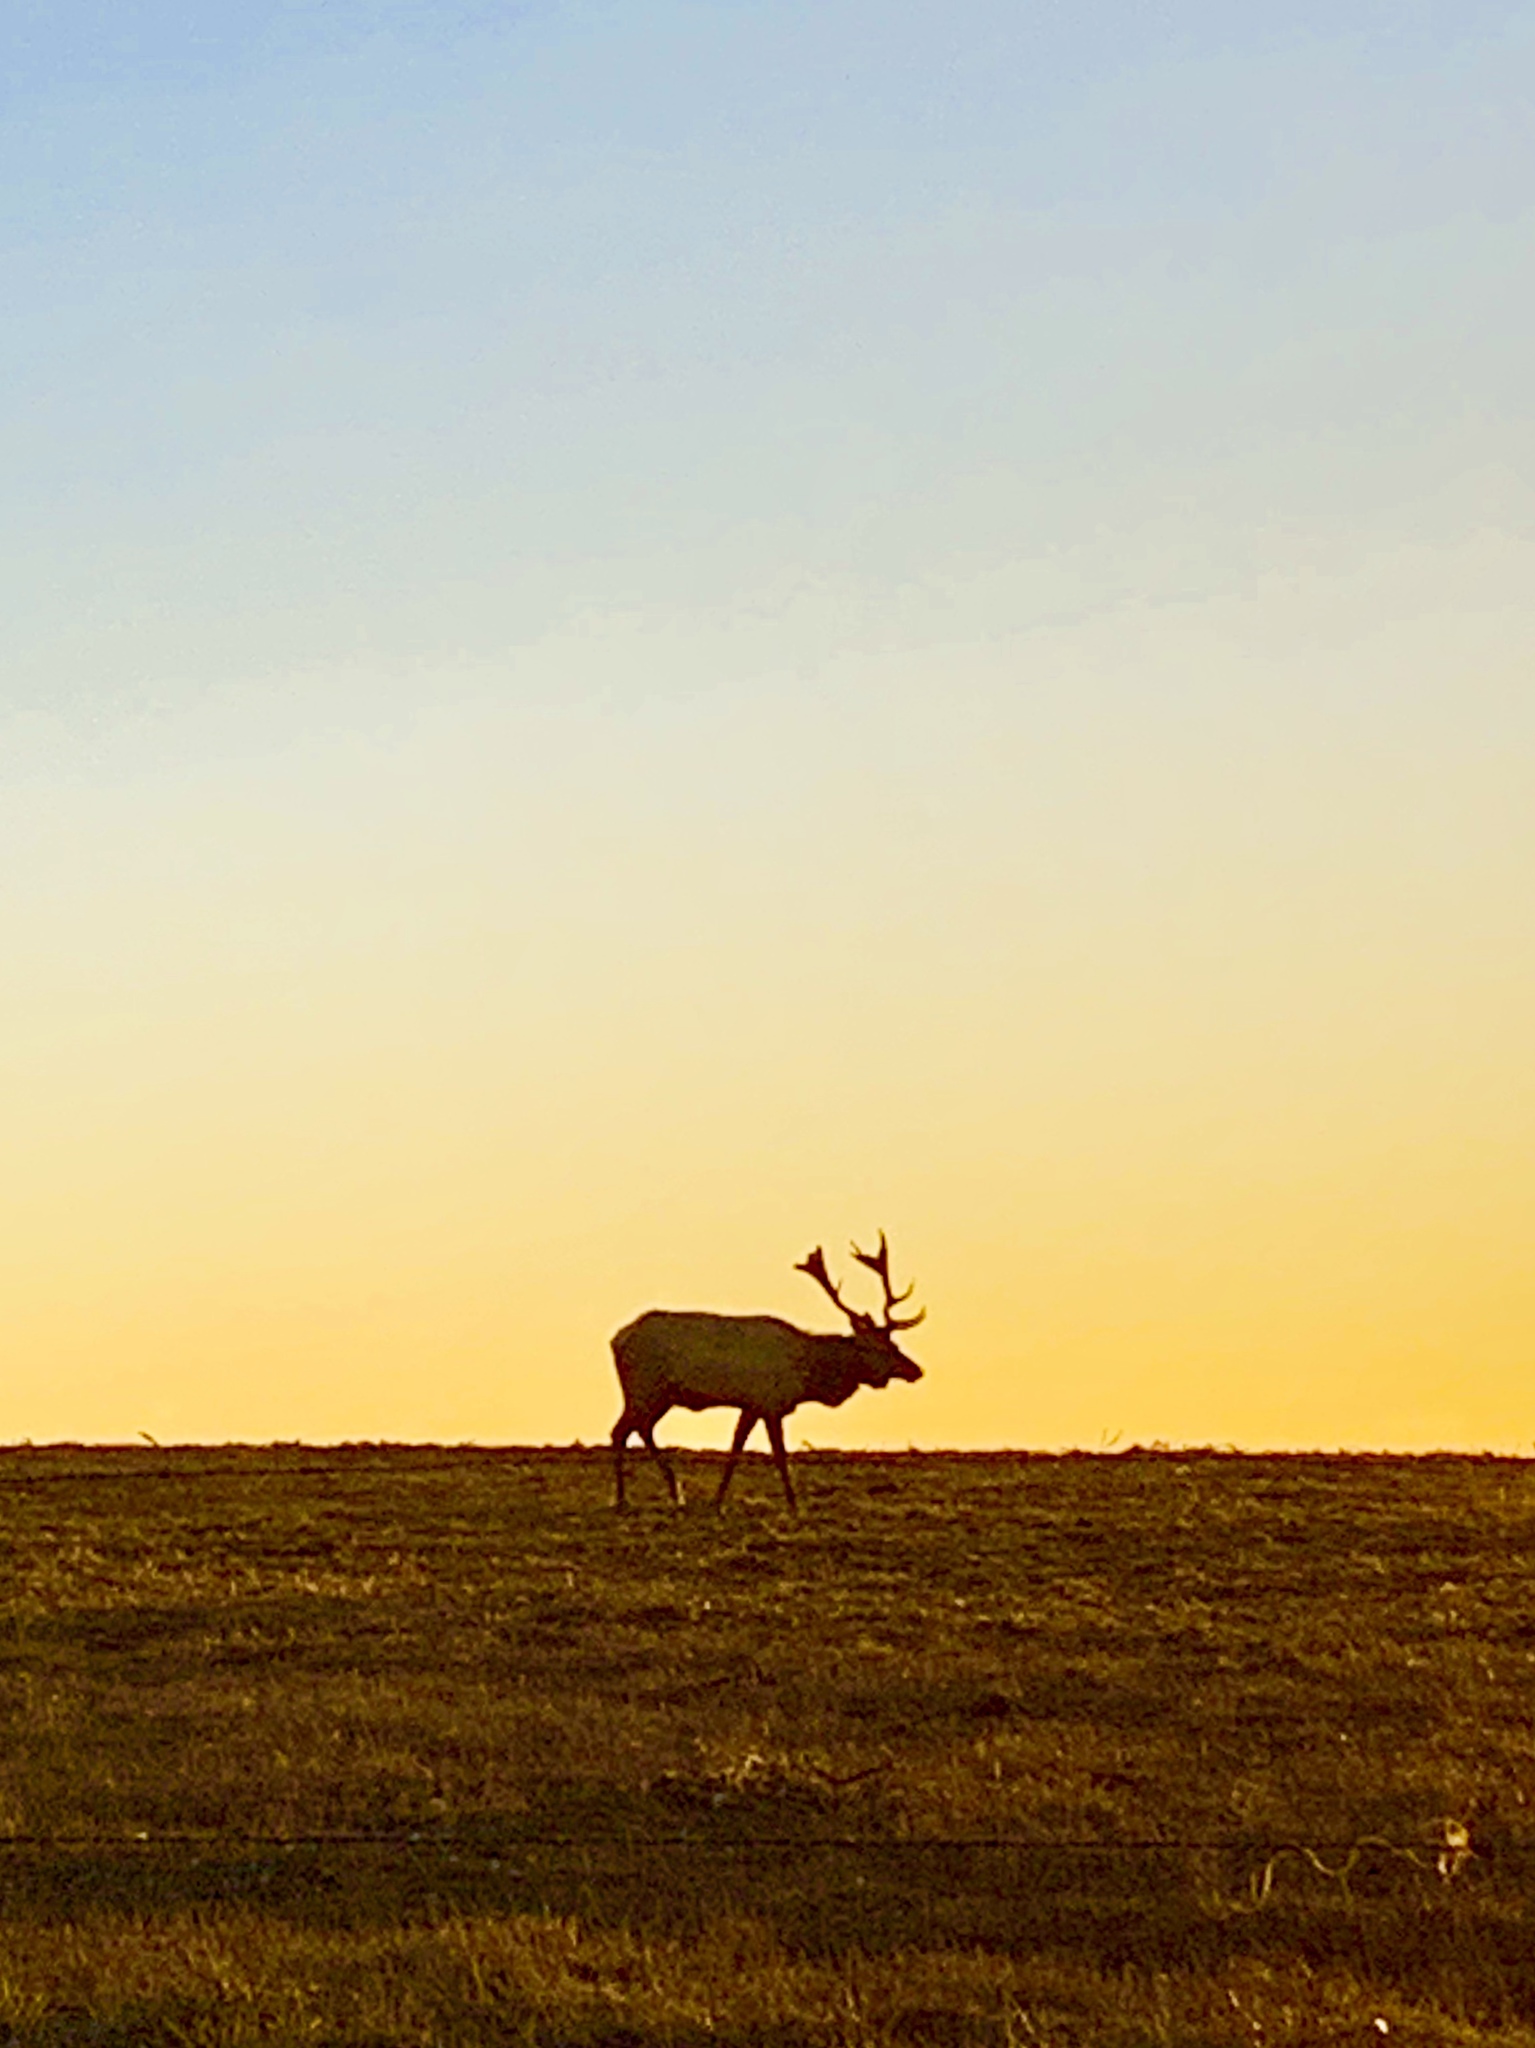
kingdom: Animalia
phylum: Chordata
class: Mammalia
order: Artiodactyla
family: Cervidae
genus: Cervus
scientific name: Cervus elaphus
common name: Red deer
